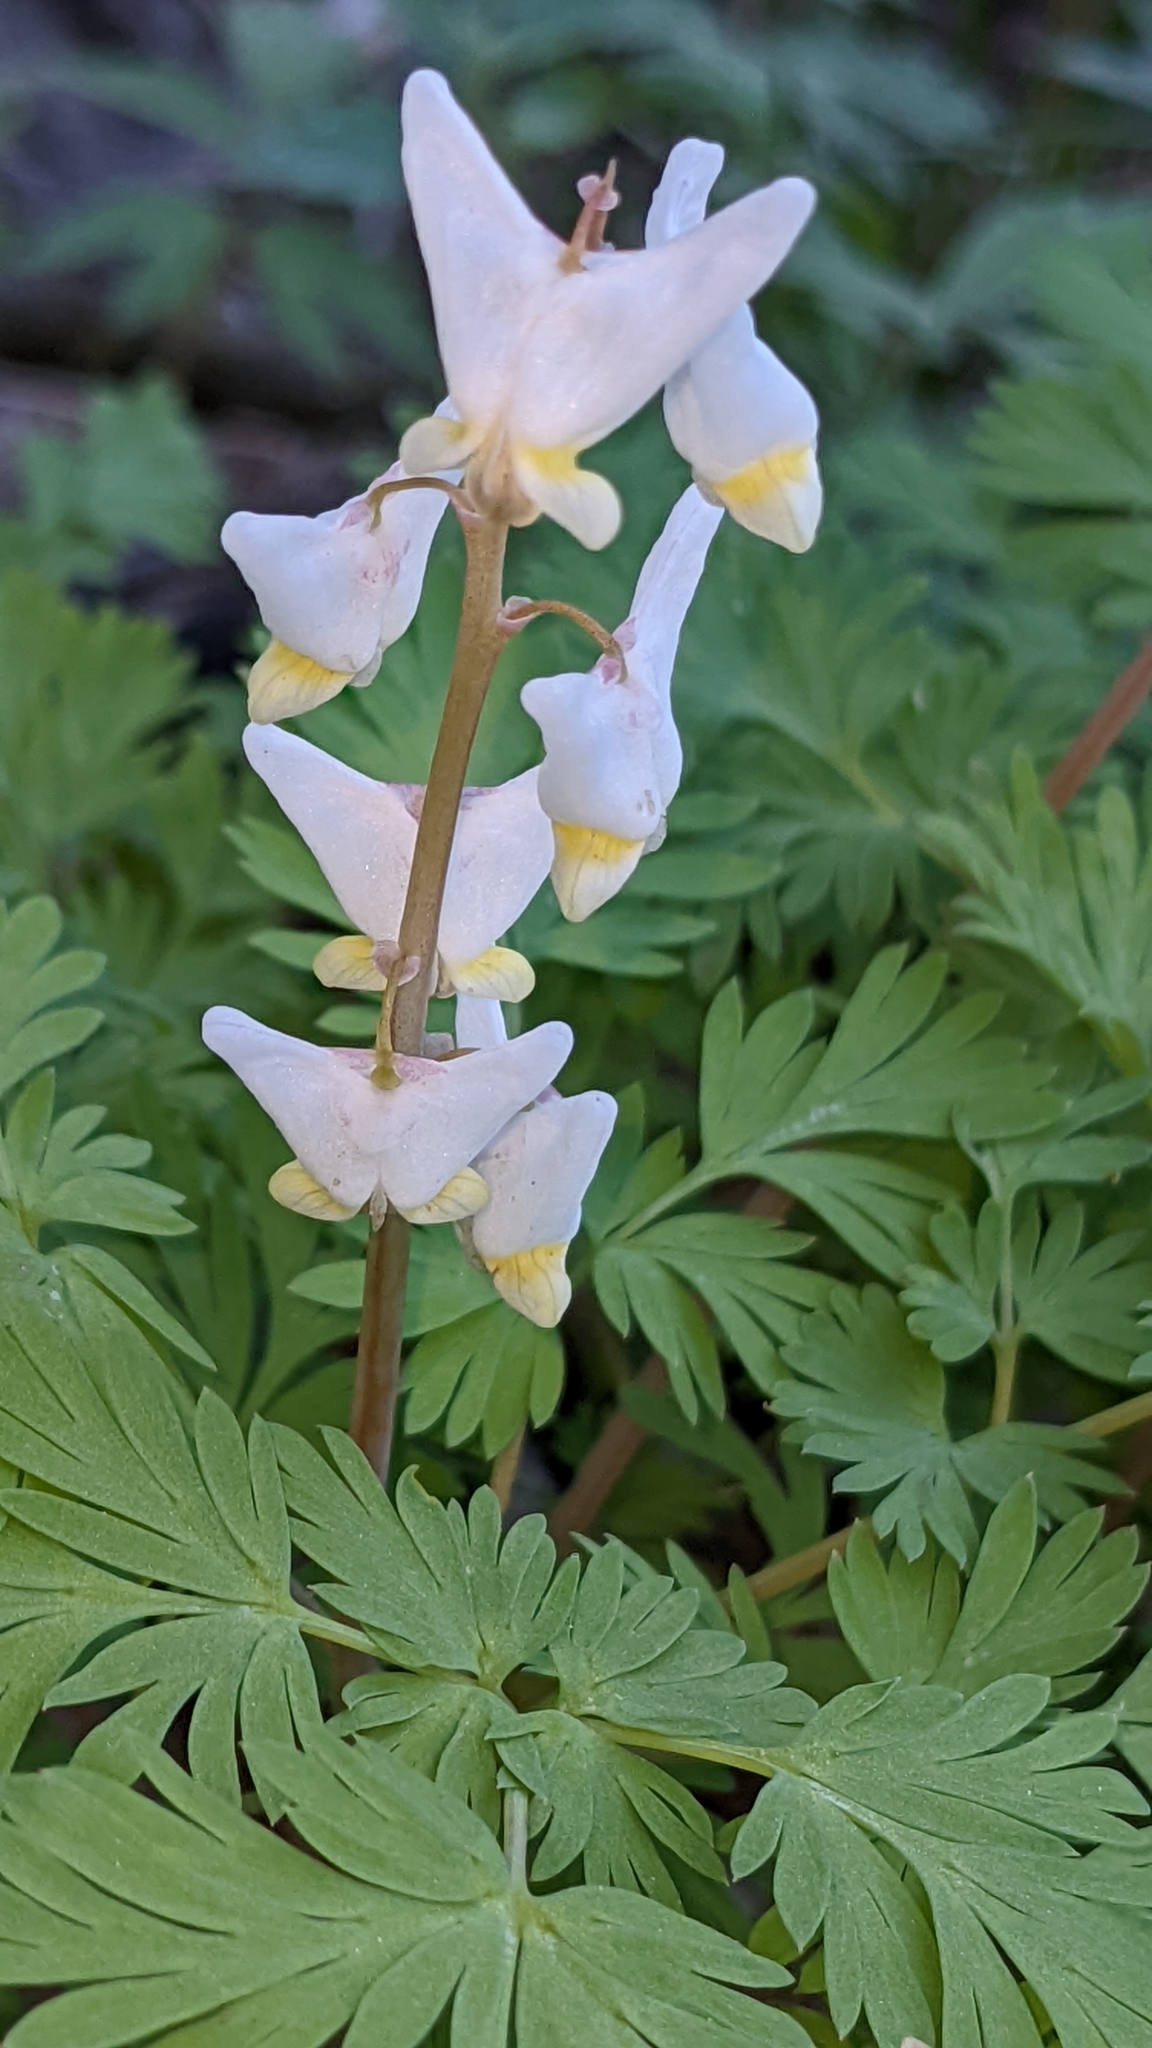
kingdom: Plantae
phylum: Tracheophyta
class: Magnoliopsida
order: Ranunculales
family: Papaveraceae
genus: Dicentra
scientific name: Dicentra cucullaria
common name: Dutchman's breeches
